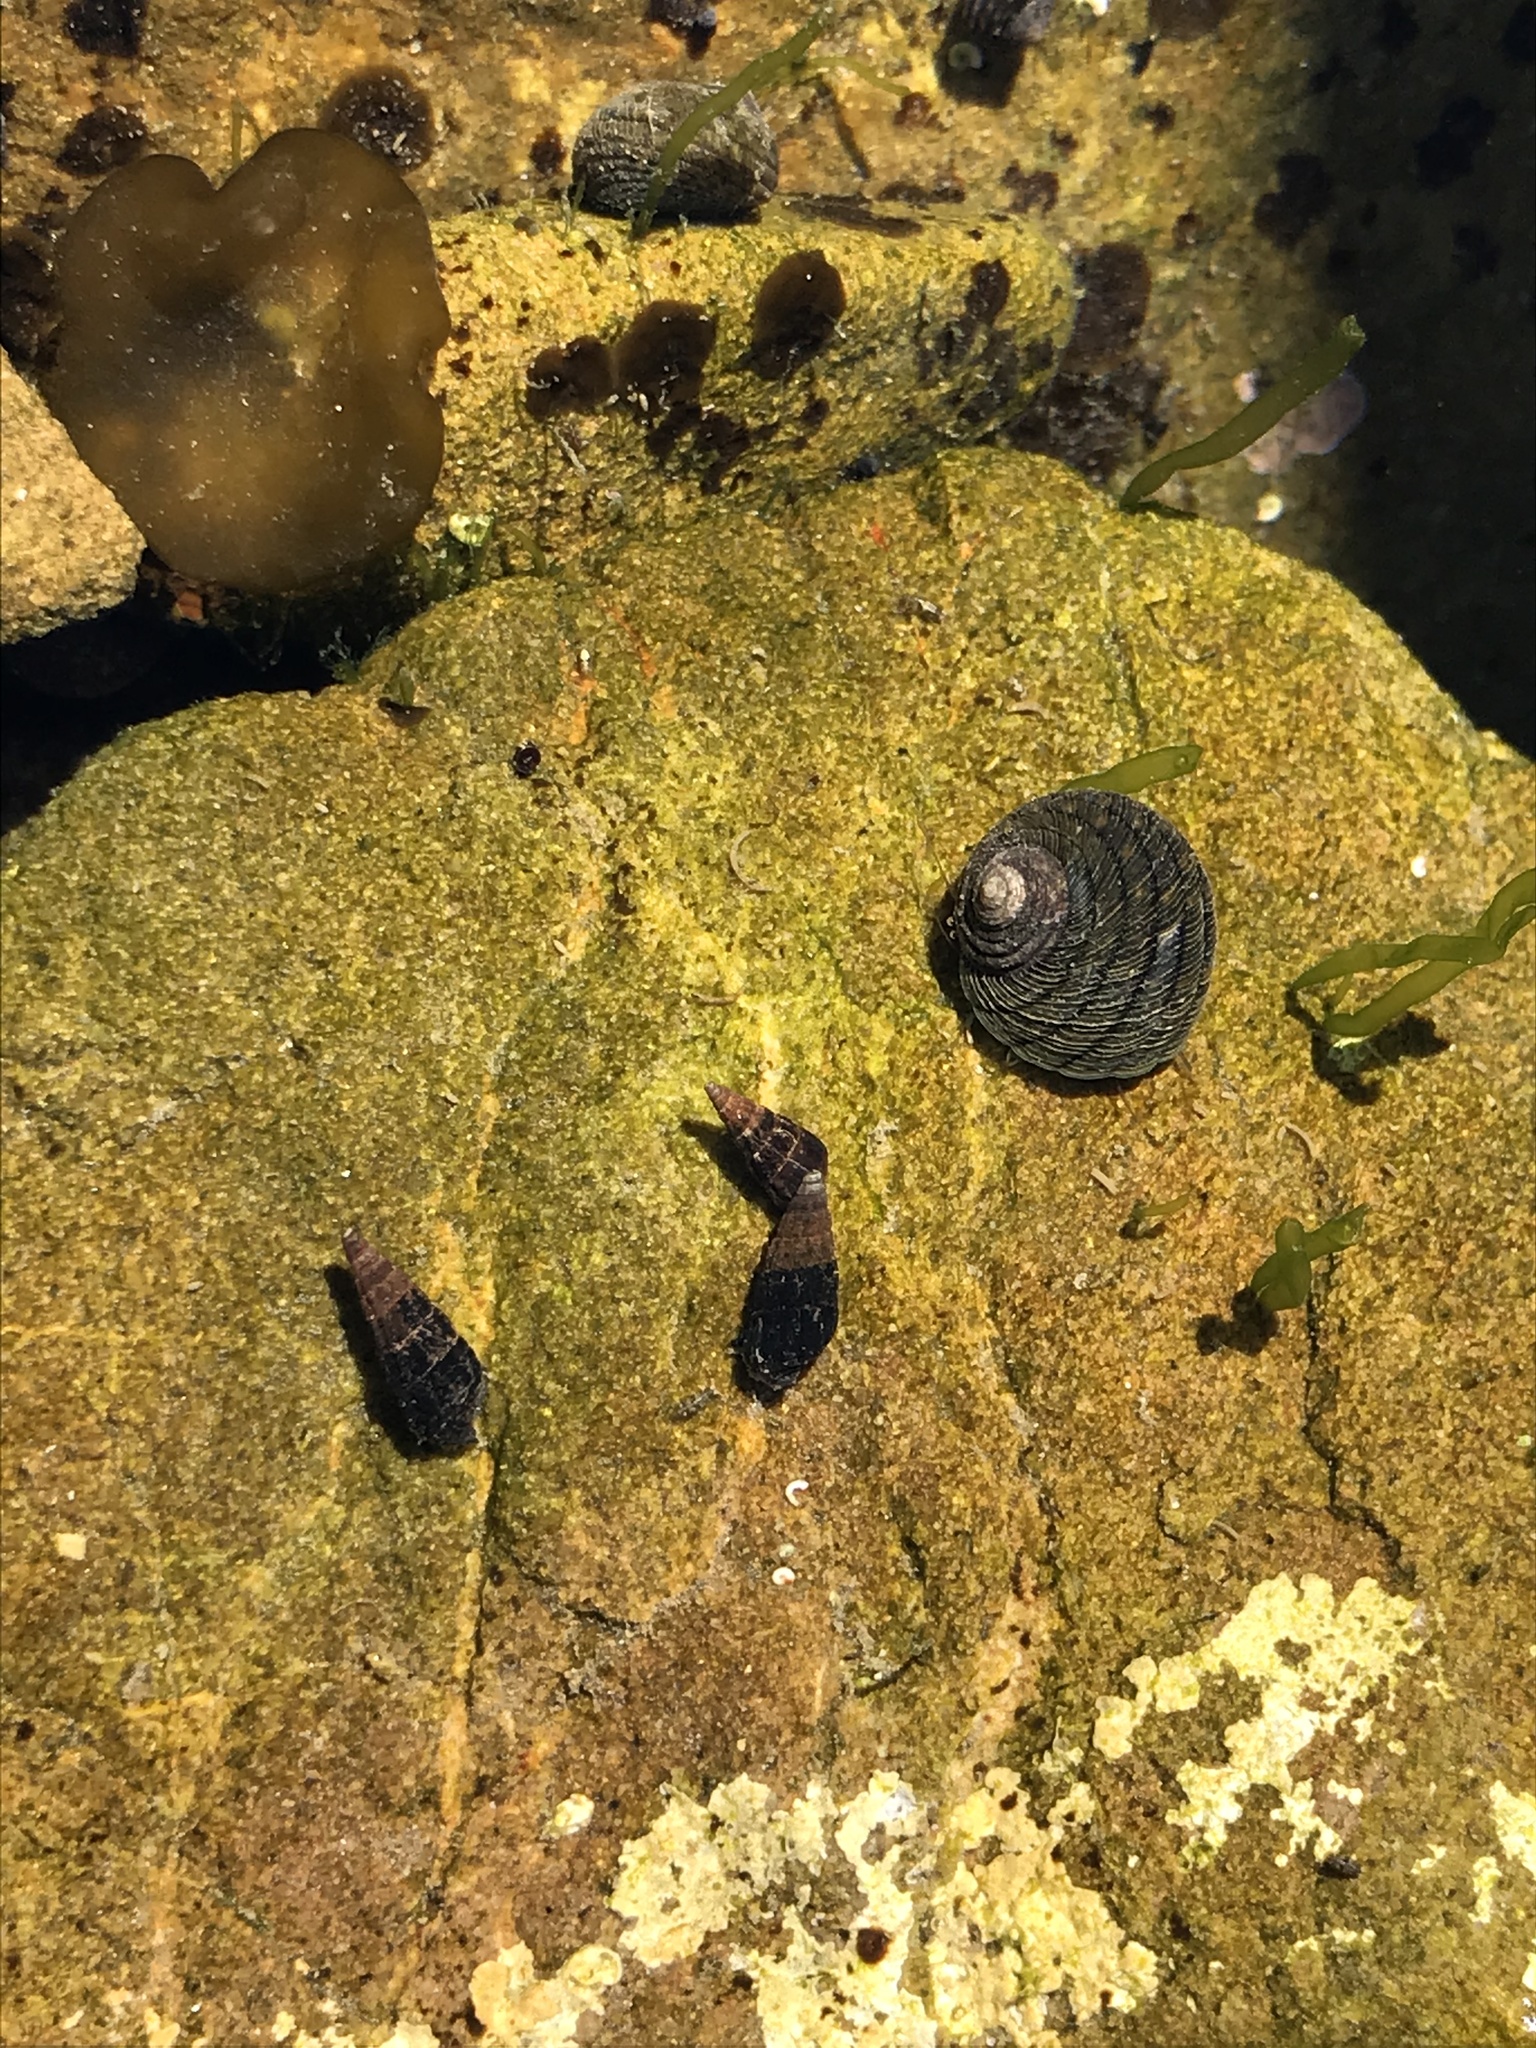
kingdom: Animalia
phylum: Mollusca
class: Gastropoda
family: Batillariidae
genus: Zeacumantus
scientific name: Zeacumantus subcarinatus
